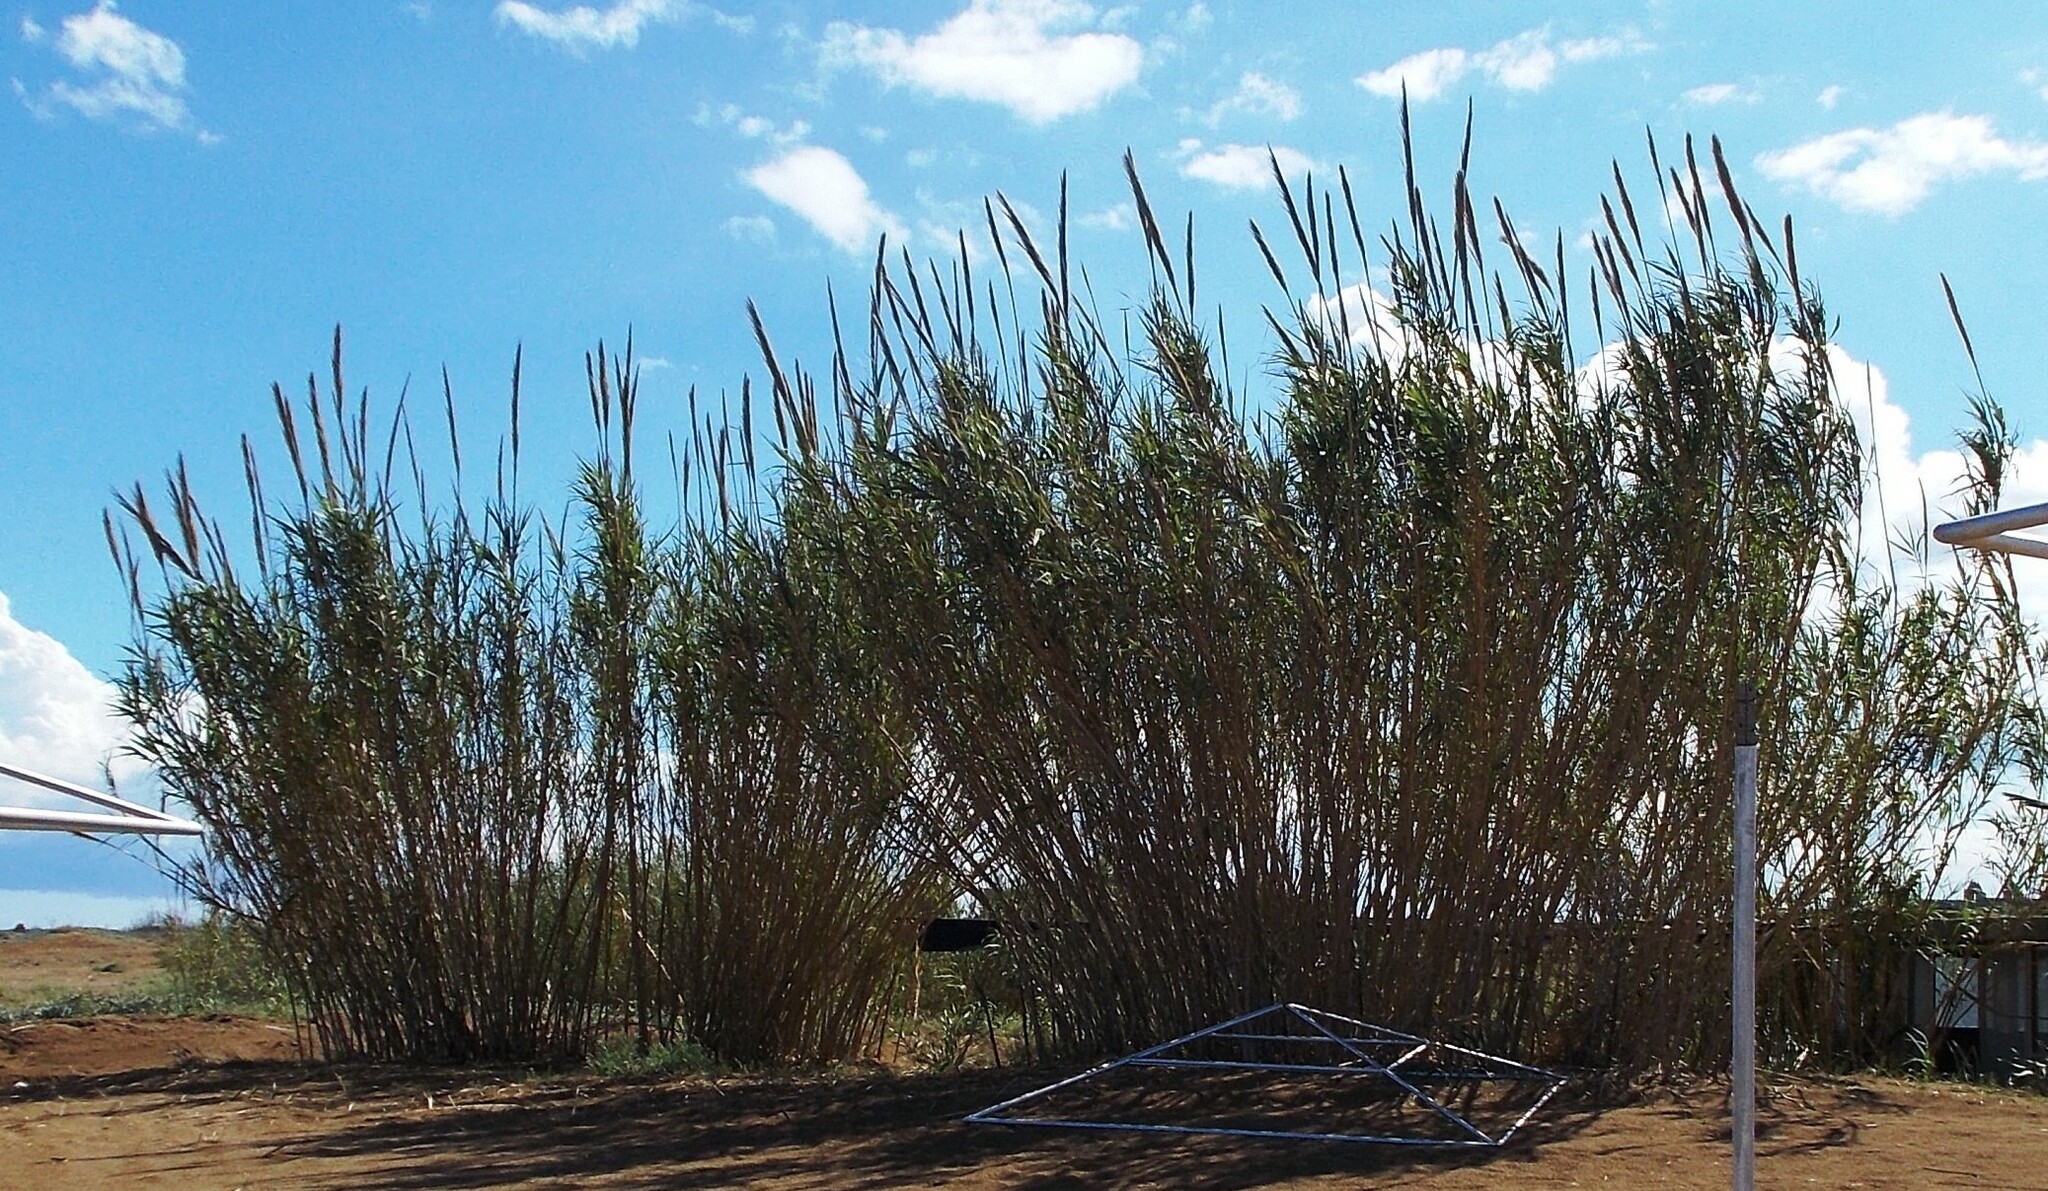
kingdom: Plantae
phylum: Tracheophyta
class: Liliopsida
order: Poales
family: Poaceae
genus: Arundo
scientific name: Arundo donax
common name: Giant reed
